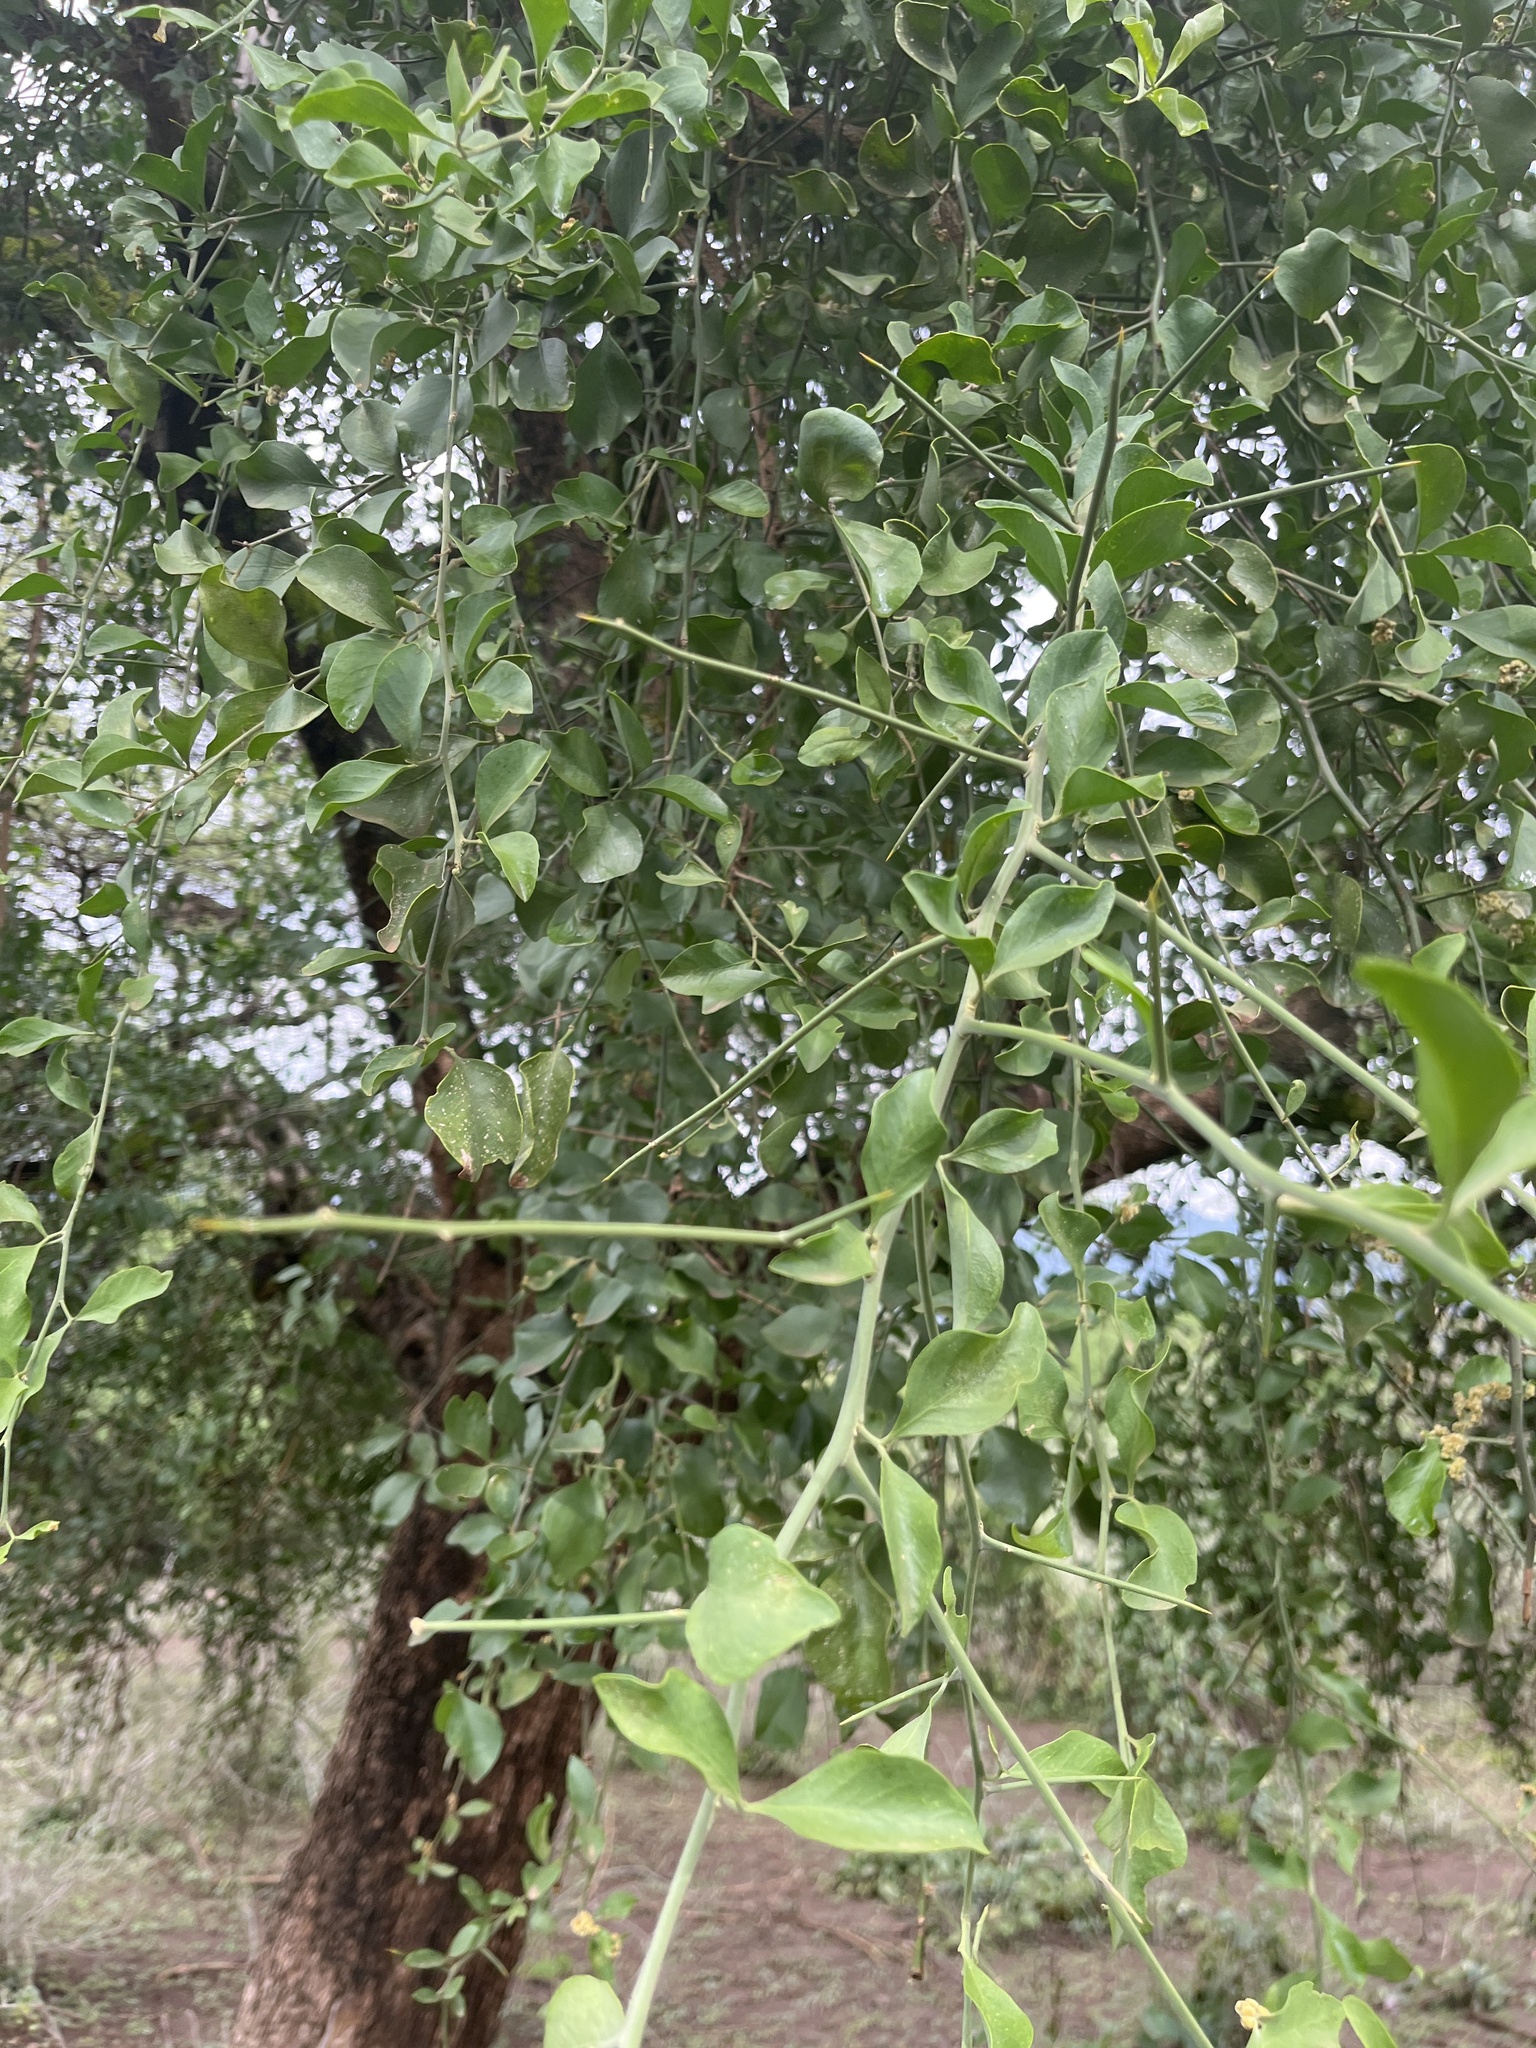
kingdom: Plantae
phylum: Tracheophyta
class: Magnoliopsida
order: Zygophyllales
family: Zygophyllaceae
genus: Balanites
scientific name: Balanites aegyptiaca
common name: Balanites
